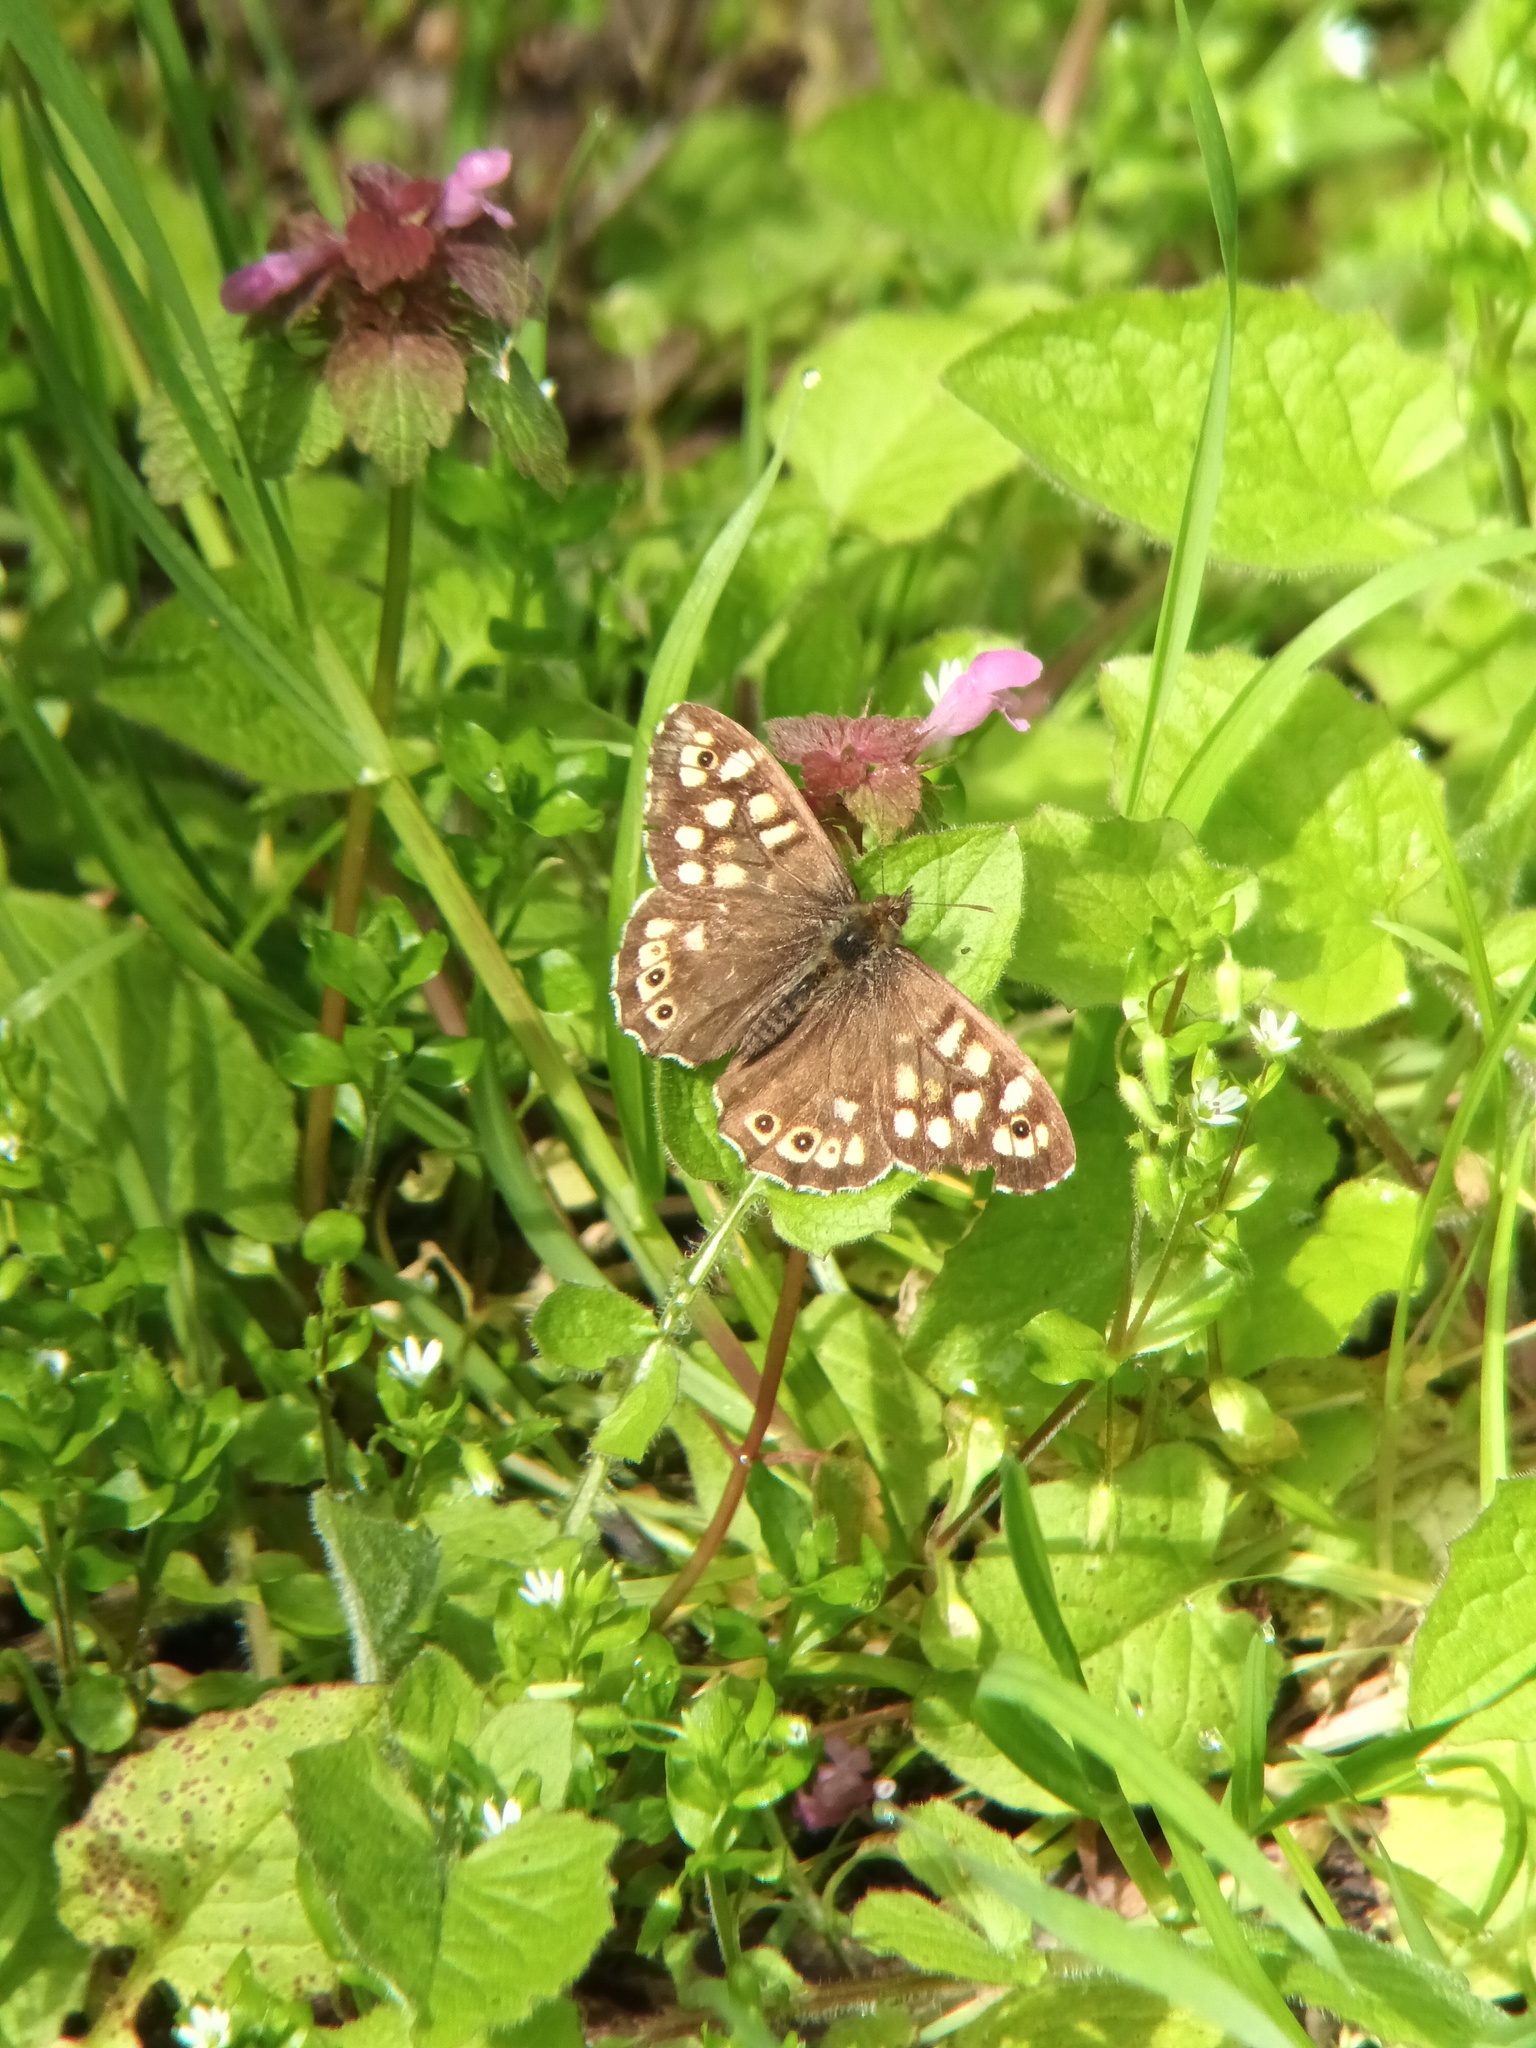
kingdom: Animalia
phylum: Arthropoda
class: Insecta
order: Lepidoptera
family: Nymphalidae
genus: Pararge
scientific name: Pararge aegeria
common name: Speckled wood
